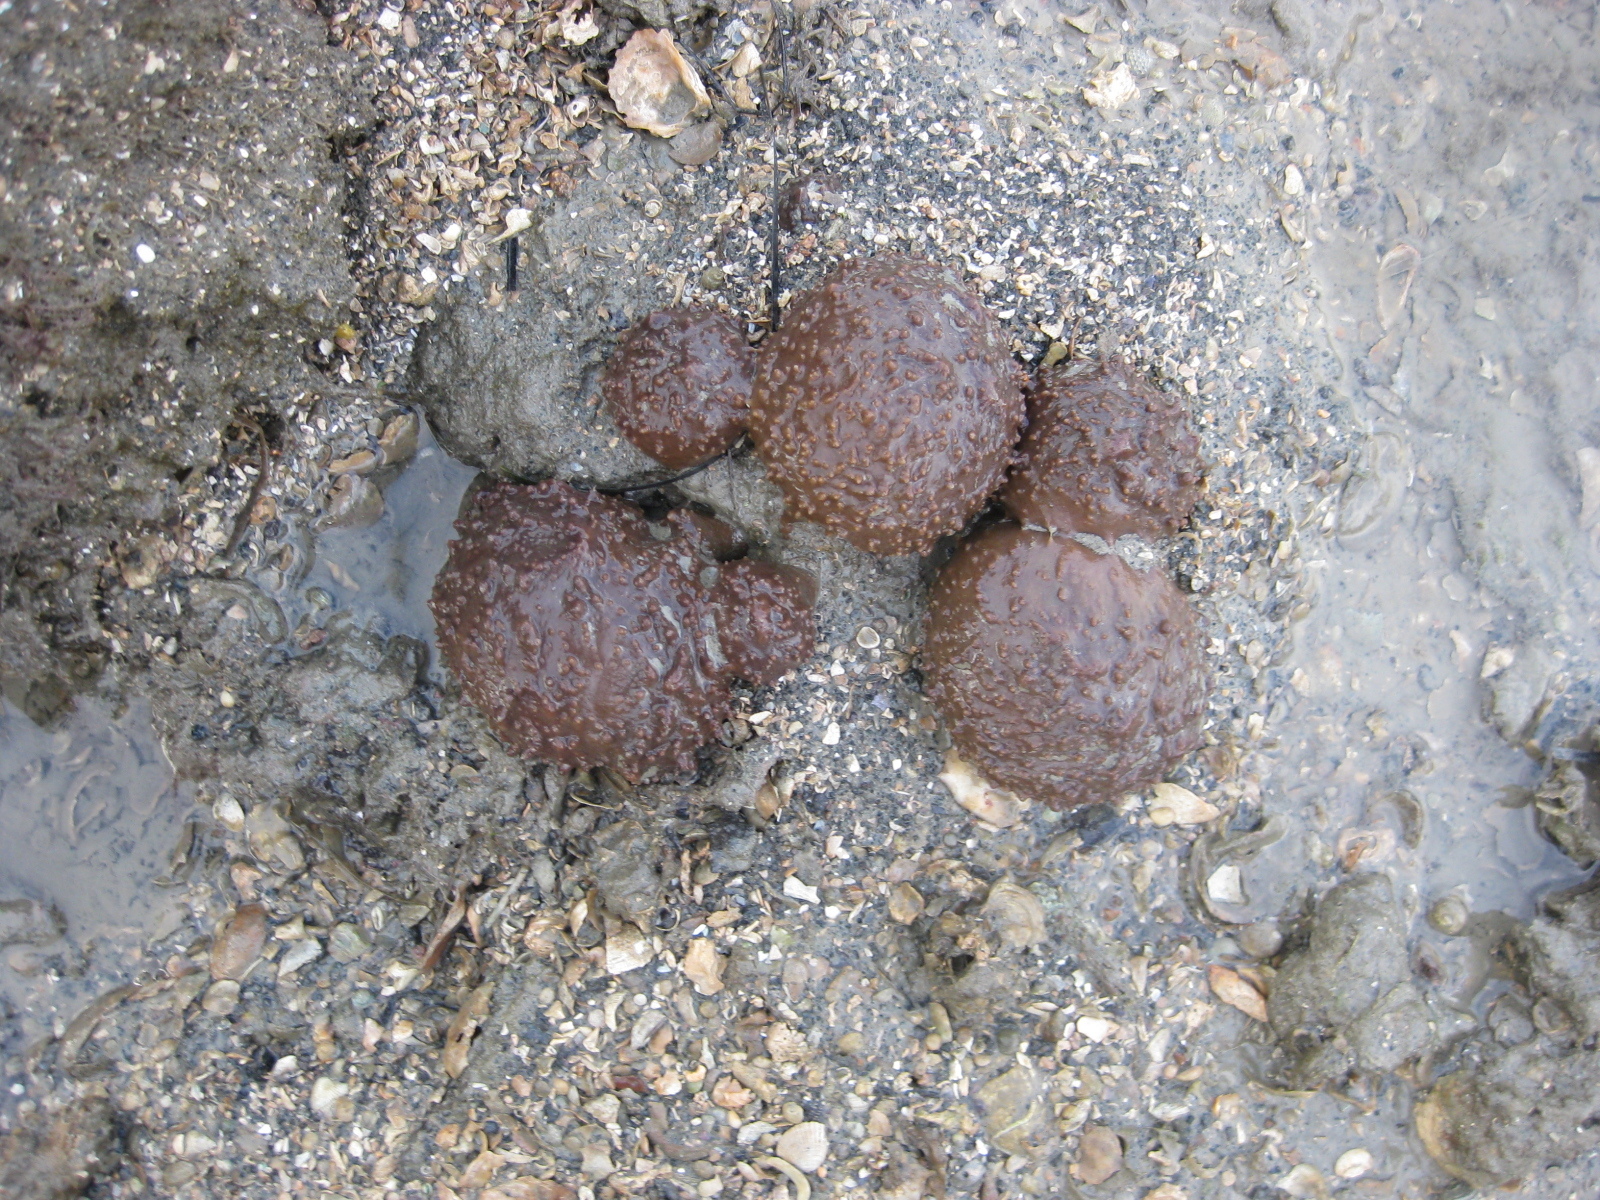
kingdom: Animalia
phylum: Porifera
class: Demospongiae
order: Suberitida
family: Suberitidae
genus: Aaptos
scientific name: Aaptos tenta
